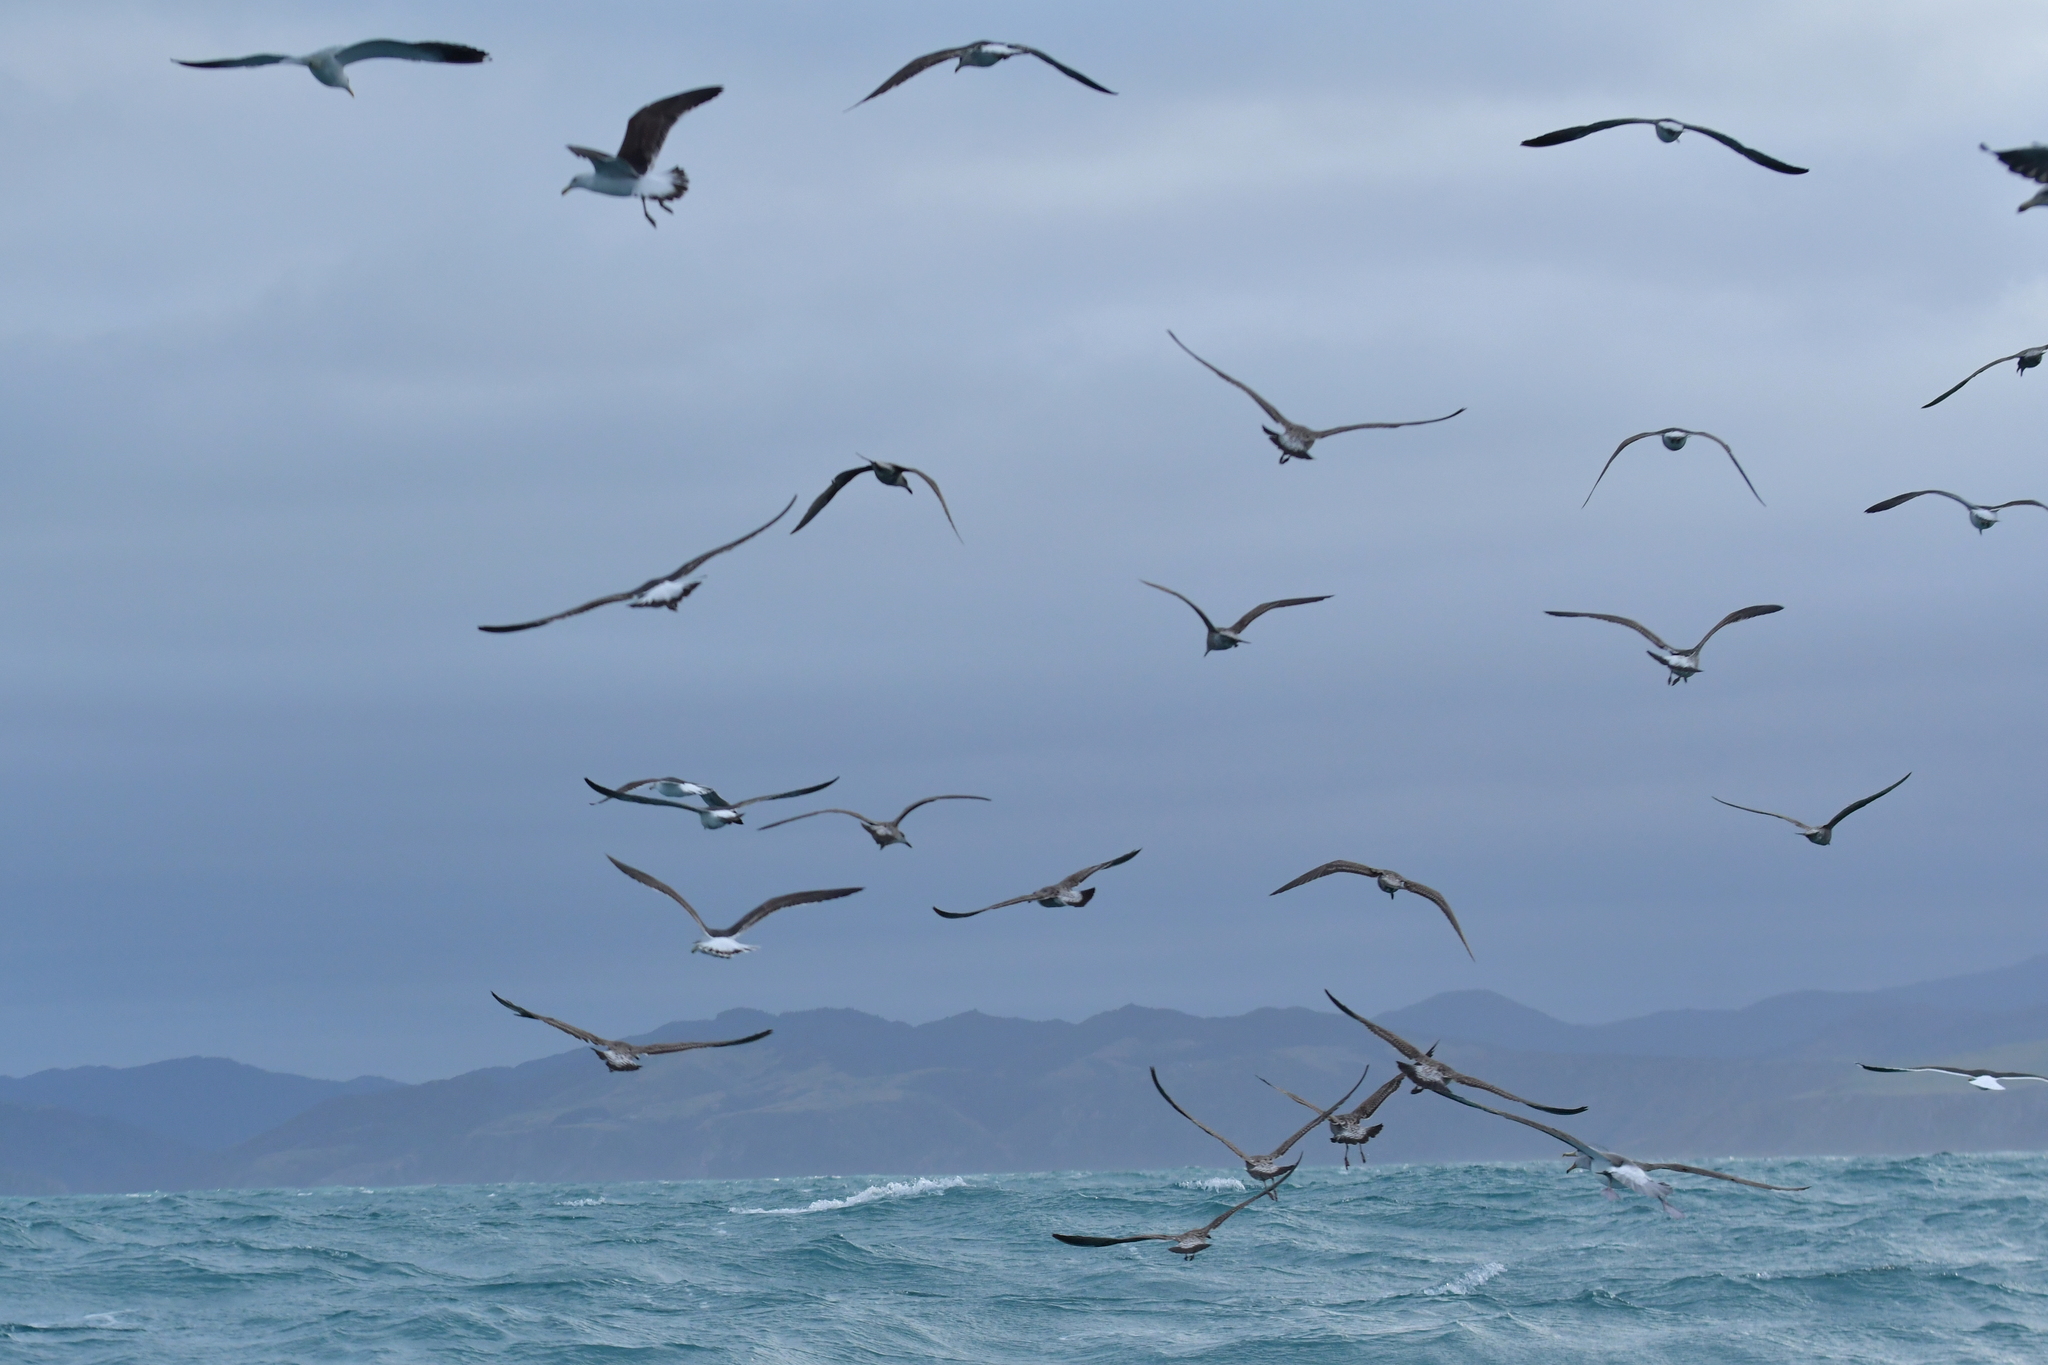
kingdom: Animalia
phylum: Chordata
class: Aves
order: Charadriiformes
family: Laridae
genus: Larus
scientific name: Larus dominicanus
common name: Kelp gull
